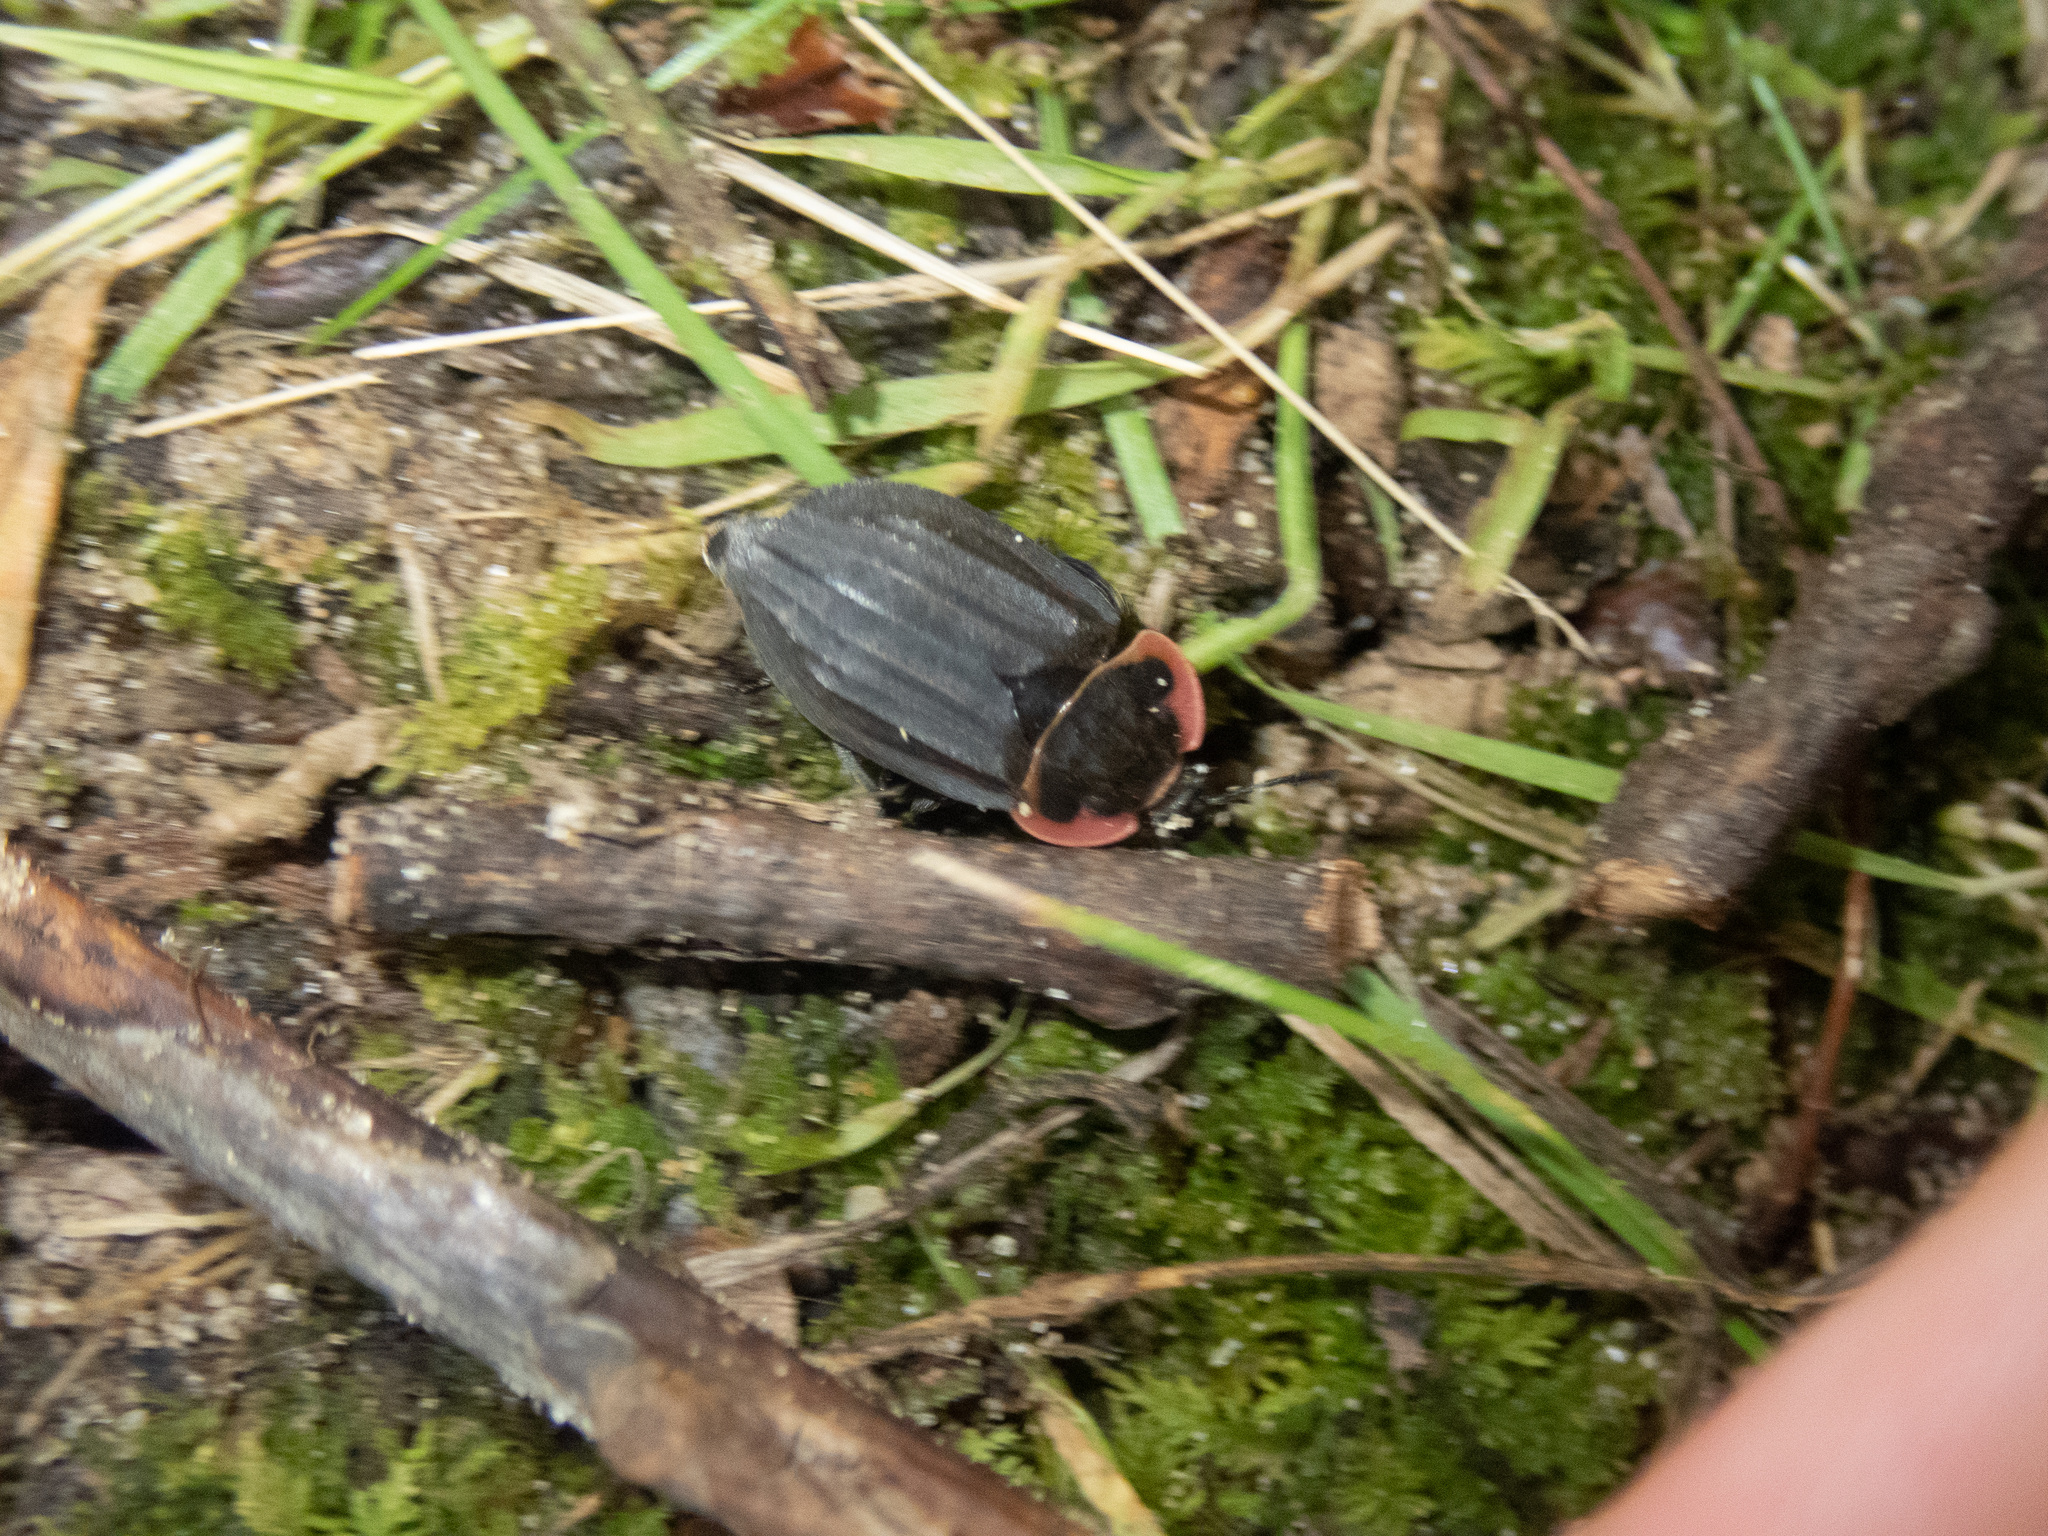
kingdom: Animalia
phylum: Arthropoda
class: Insecta
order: Coleoptera
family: Staphylinidae
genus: Oiceoptoma
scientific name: Oiceoptoma noveboracense
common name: Margined carrion beetle
